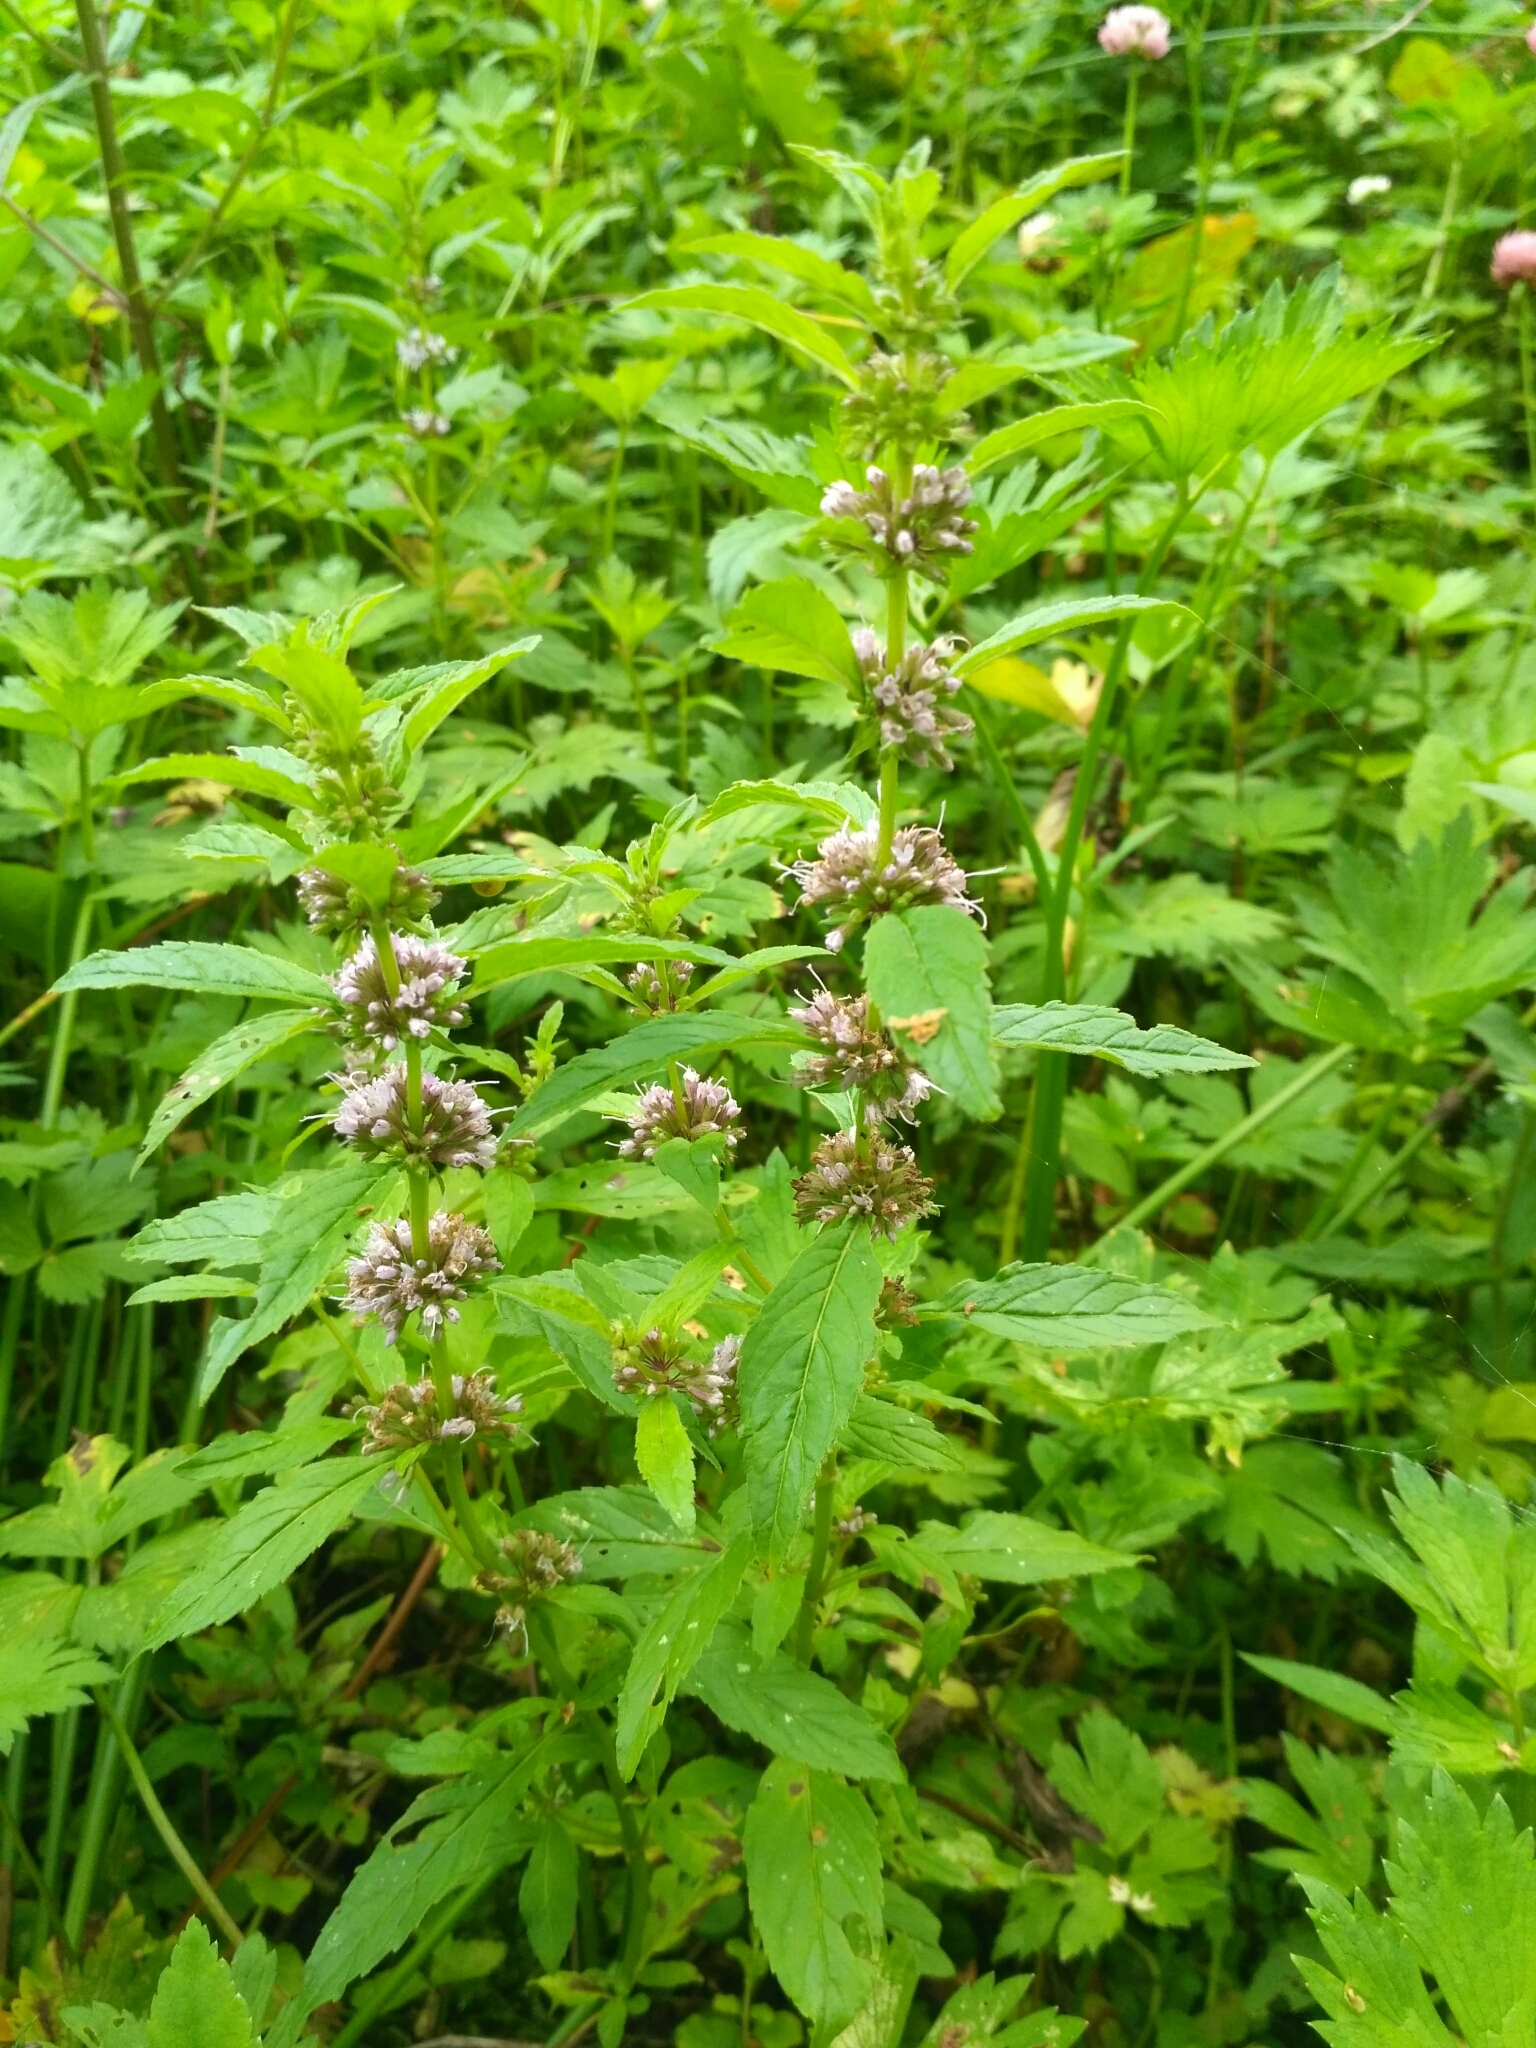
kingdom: Plantae
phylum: Tracheophyta
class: Magnoliopsida
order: Lamiales
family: Lamiaceae
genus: Mentha
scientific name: Mentha arvensis
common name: Corn mint
